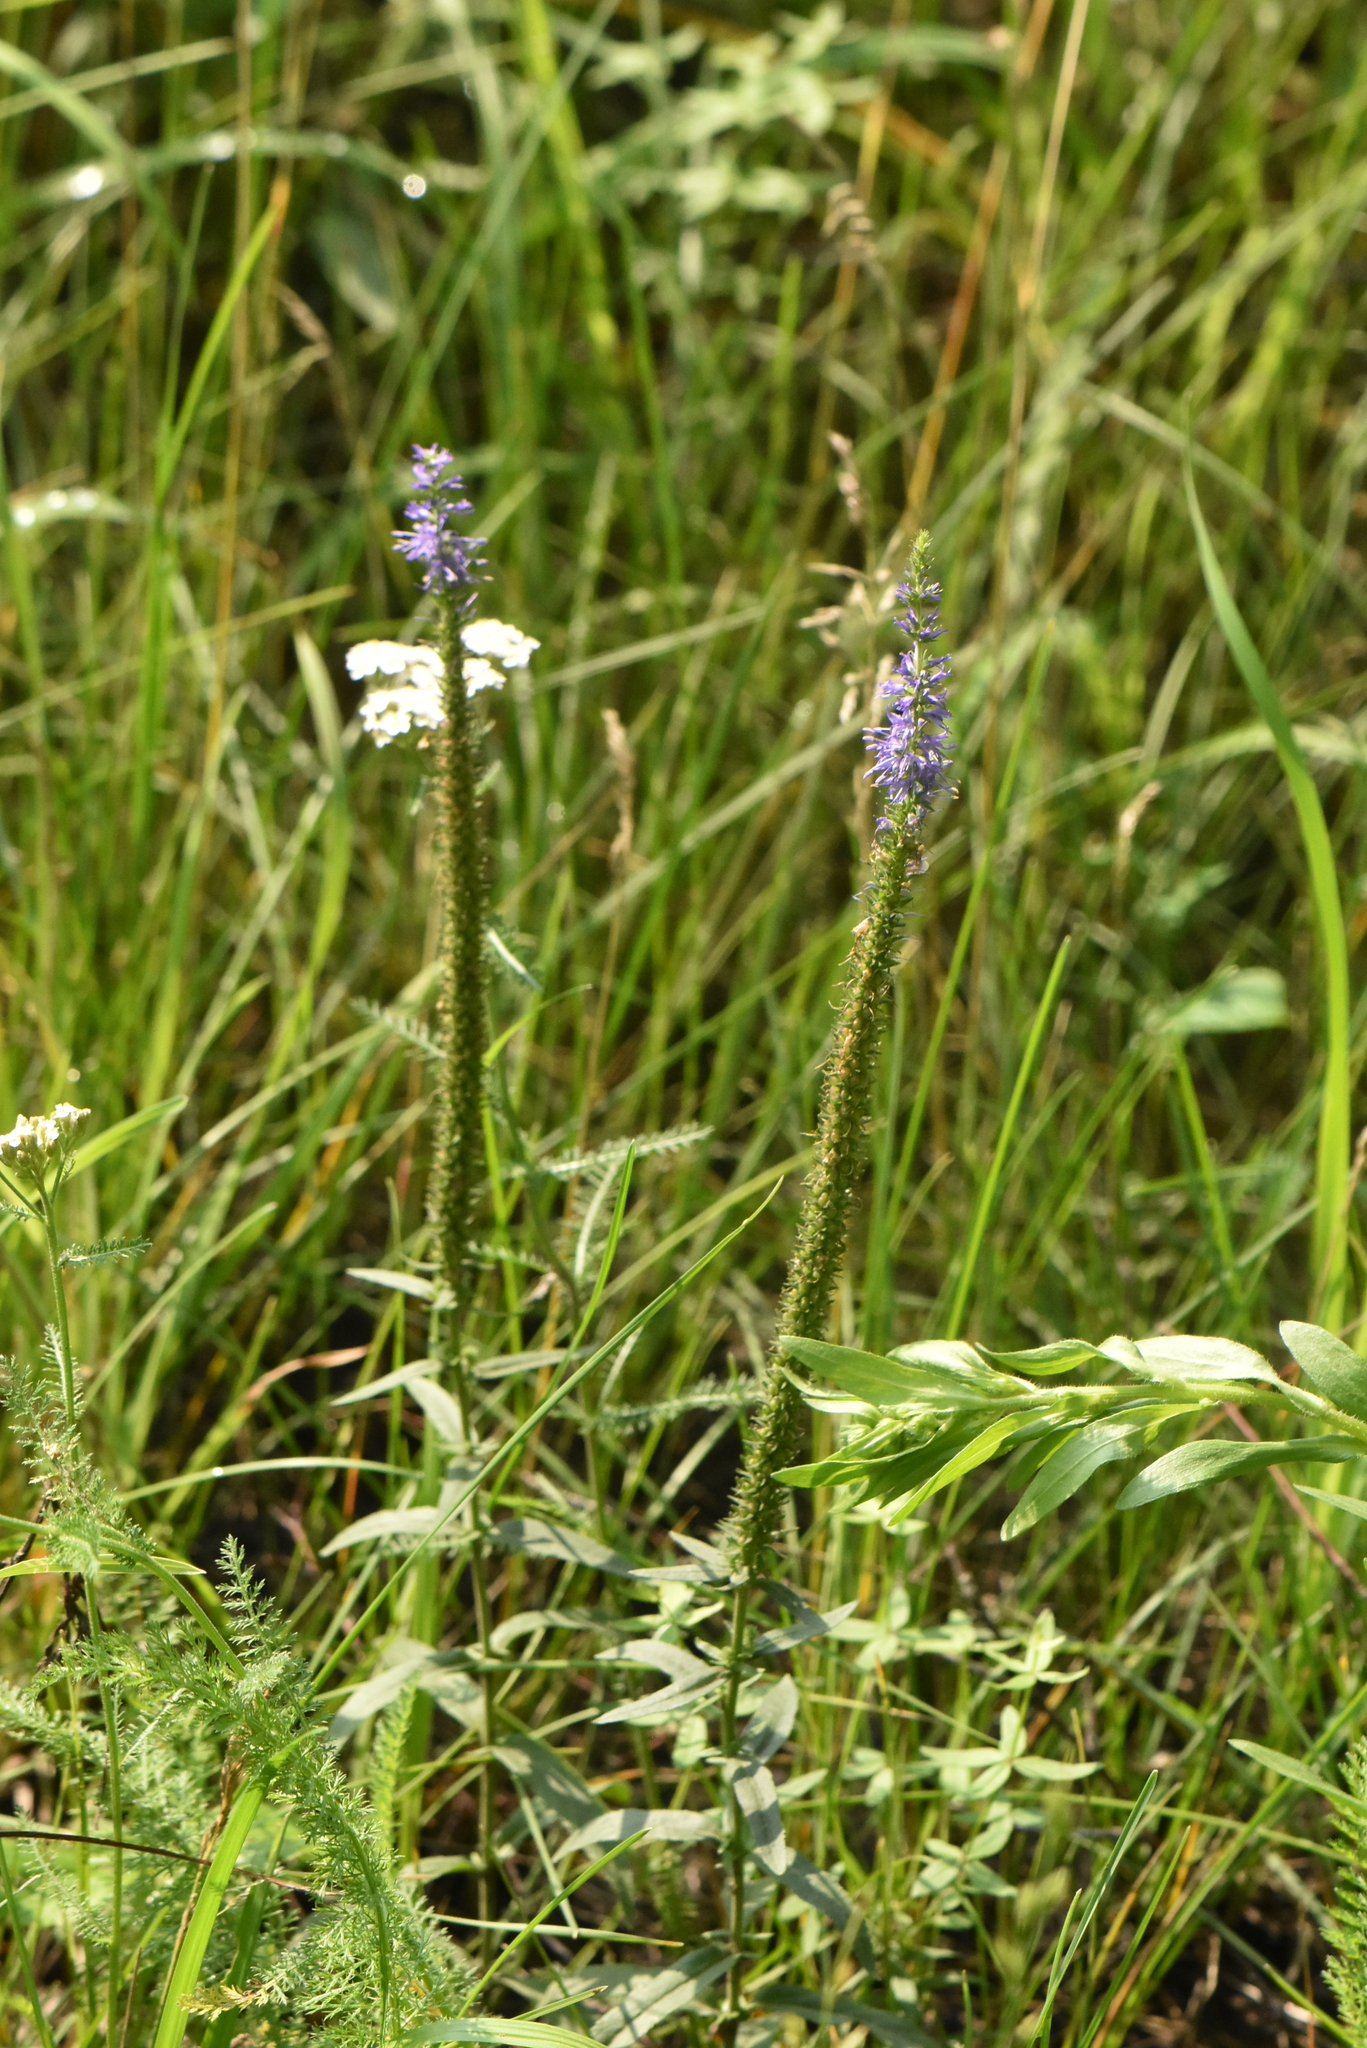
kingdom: Plantae
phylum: Tracheophyta
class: Magnoliopsida
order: Lamiales
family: Plantaginaceae
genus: Veronica
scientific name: Veronica spicata
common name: Spiked speedwell
